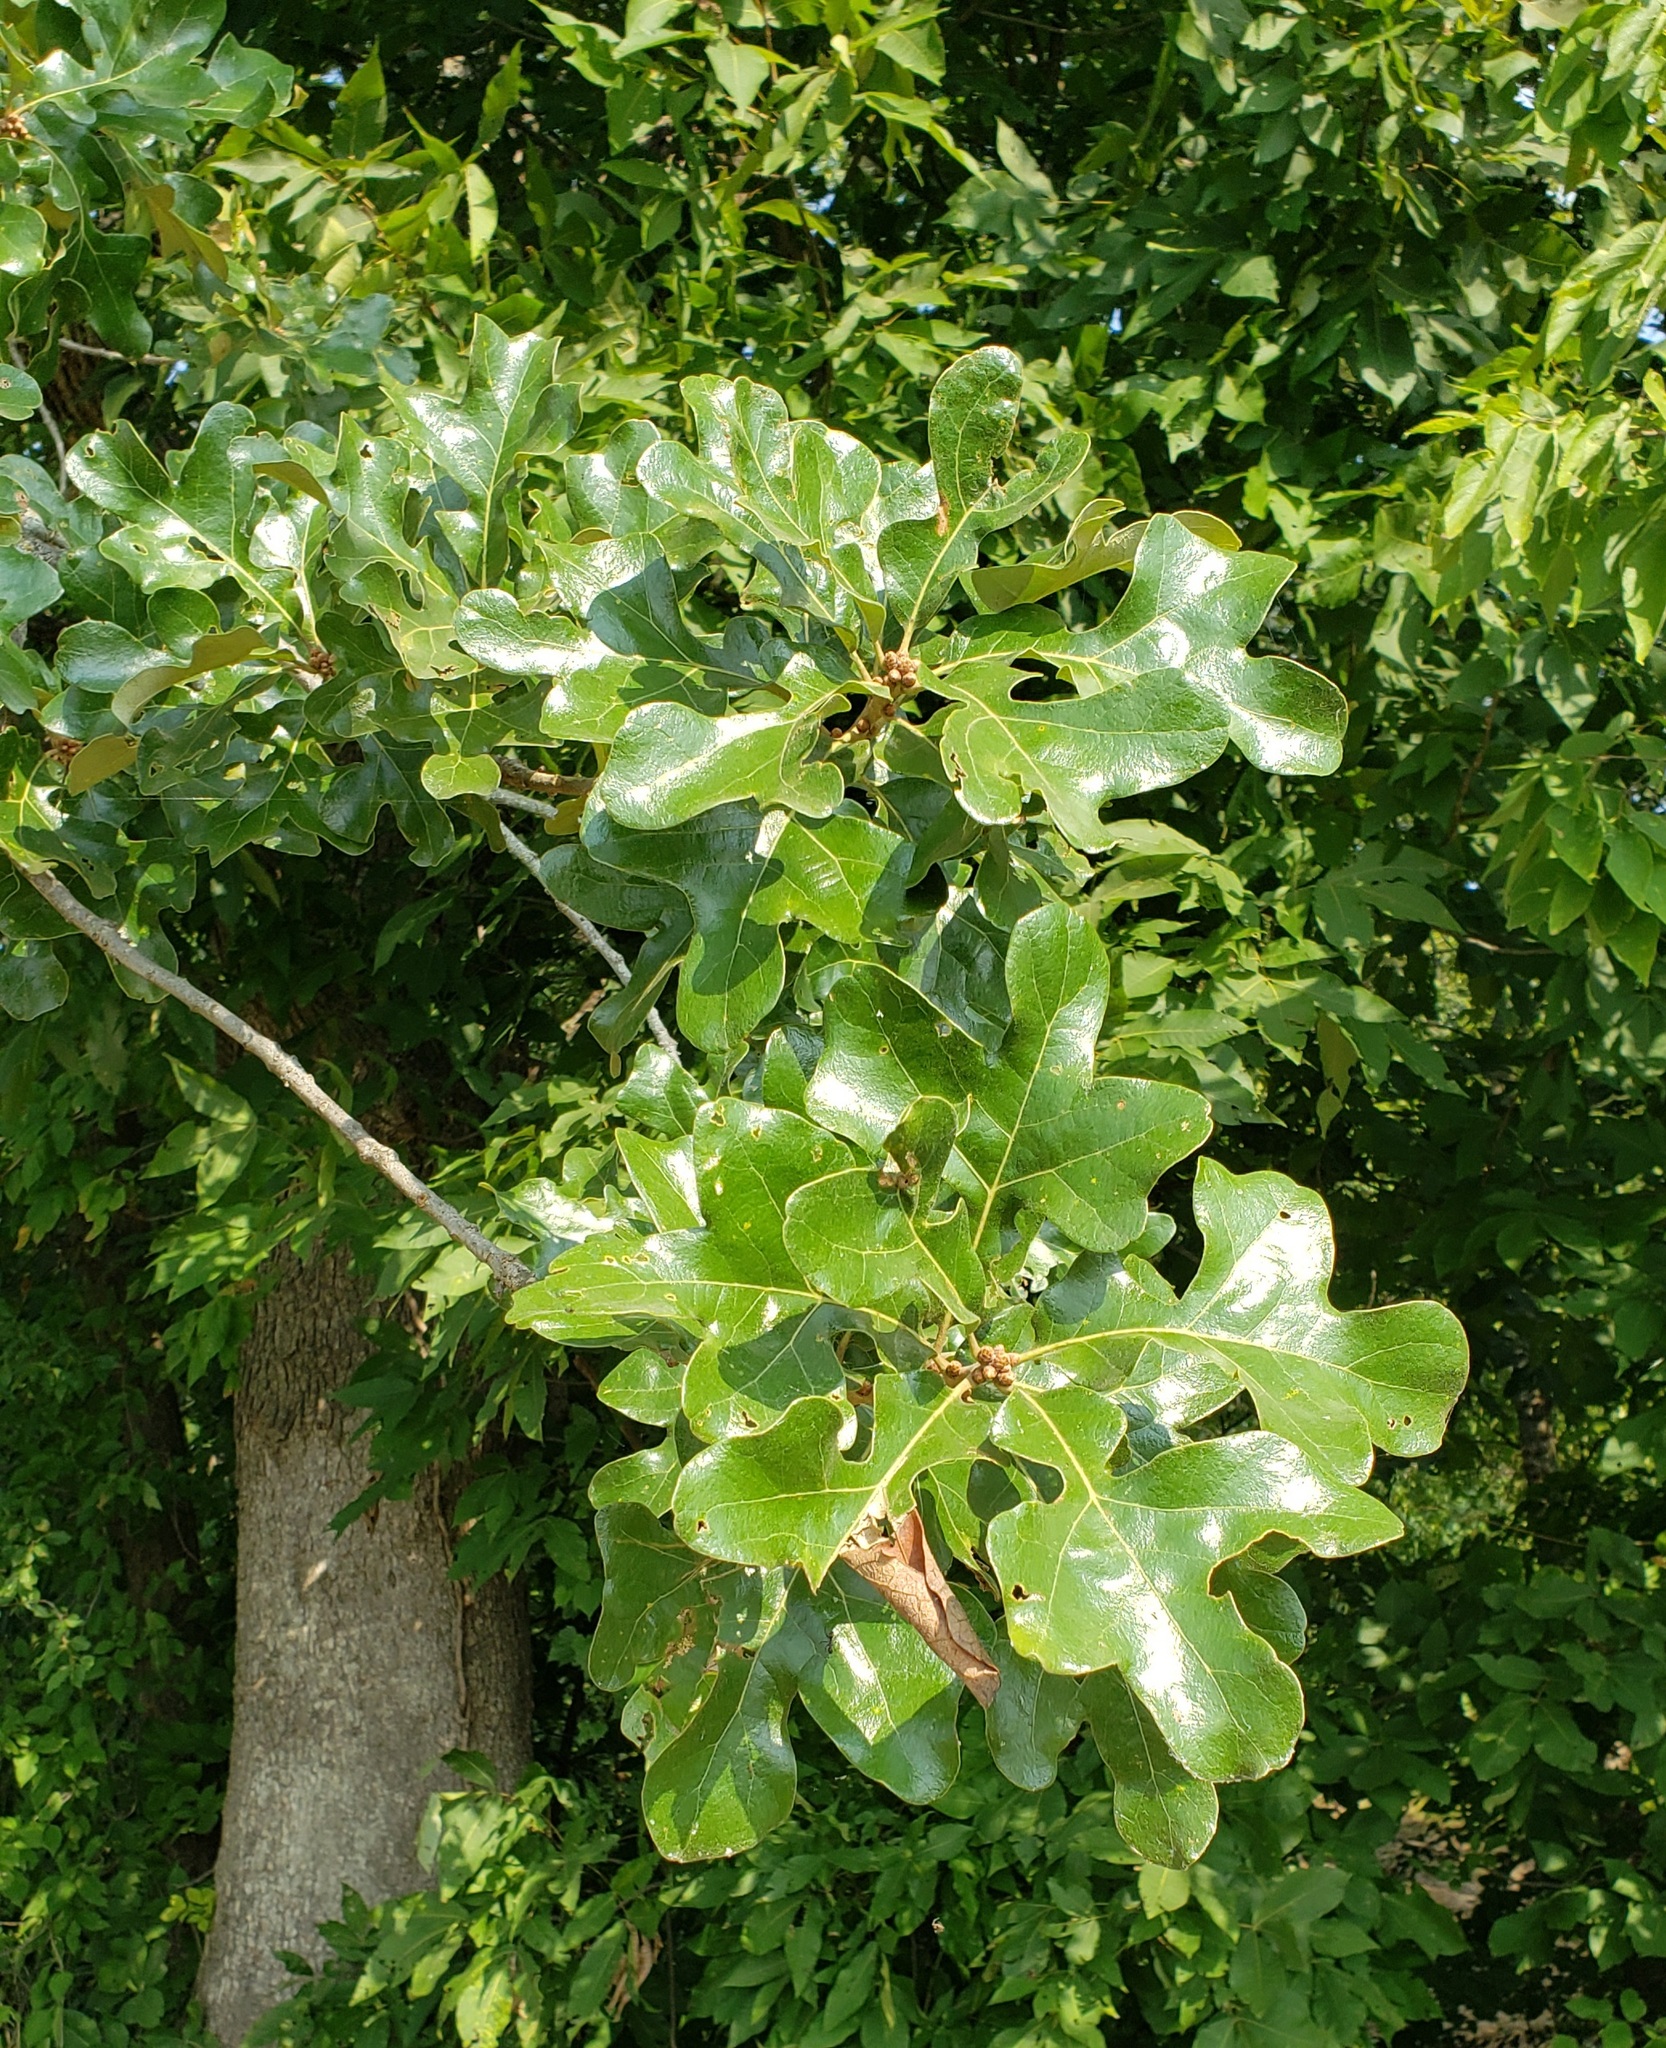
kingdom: Plantae
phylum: Tracheophyta
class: Magnoliopsida
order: Fagales
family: Fagaceae
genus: Quercus
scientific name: Quercus stellata
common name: Post oak
